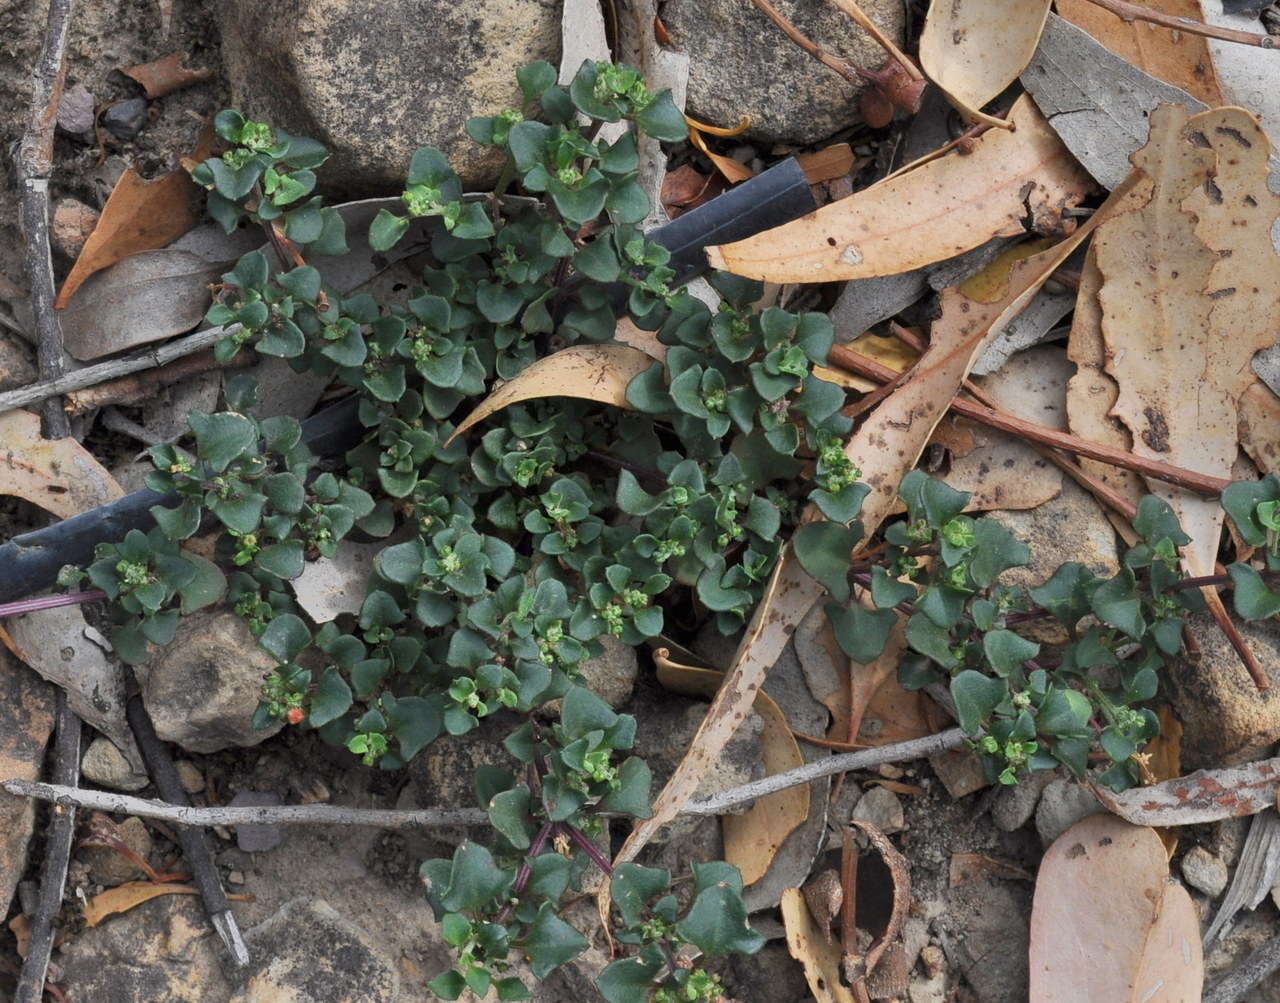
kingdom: Plantae
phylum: Tracheophyta
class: Magnoliopsida
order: Caryophyllales
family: Amaranthaceae
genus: Chenopodium
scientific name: Chenopodium robertianum
